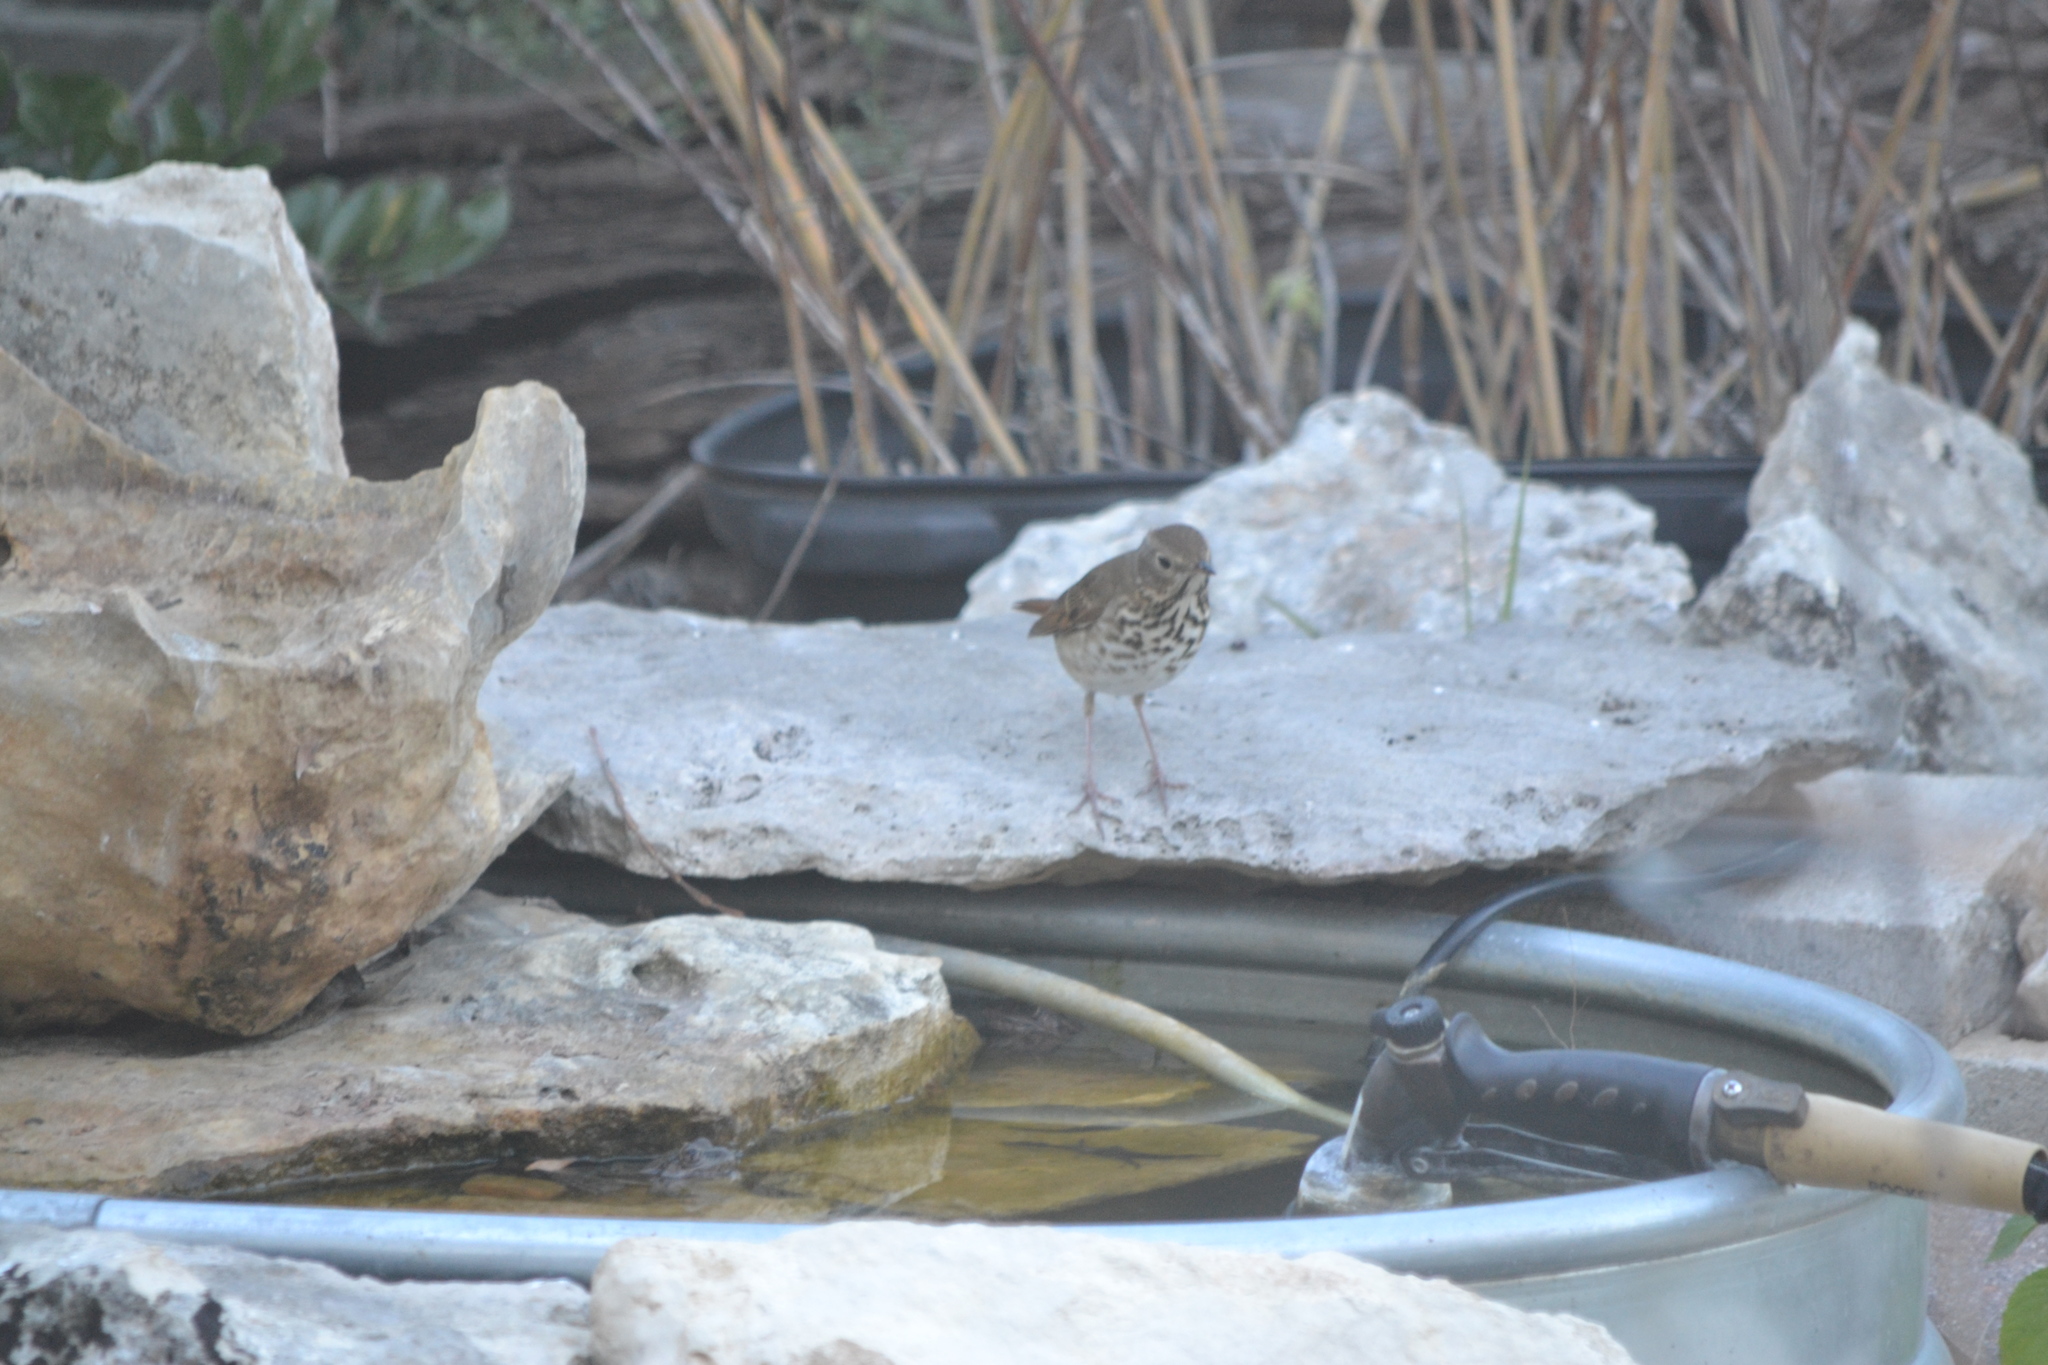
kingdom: Animalia
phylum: Chordata
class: Aves
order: Passeriformes
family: Turdidae
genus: Catharus
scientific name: Catharus guttatus
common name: Hermit thrush
